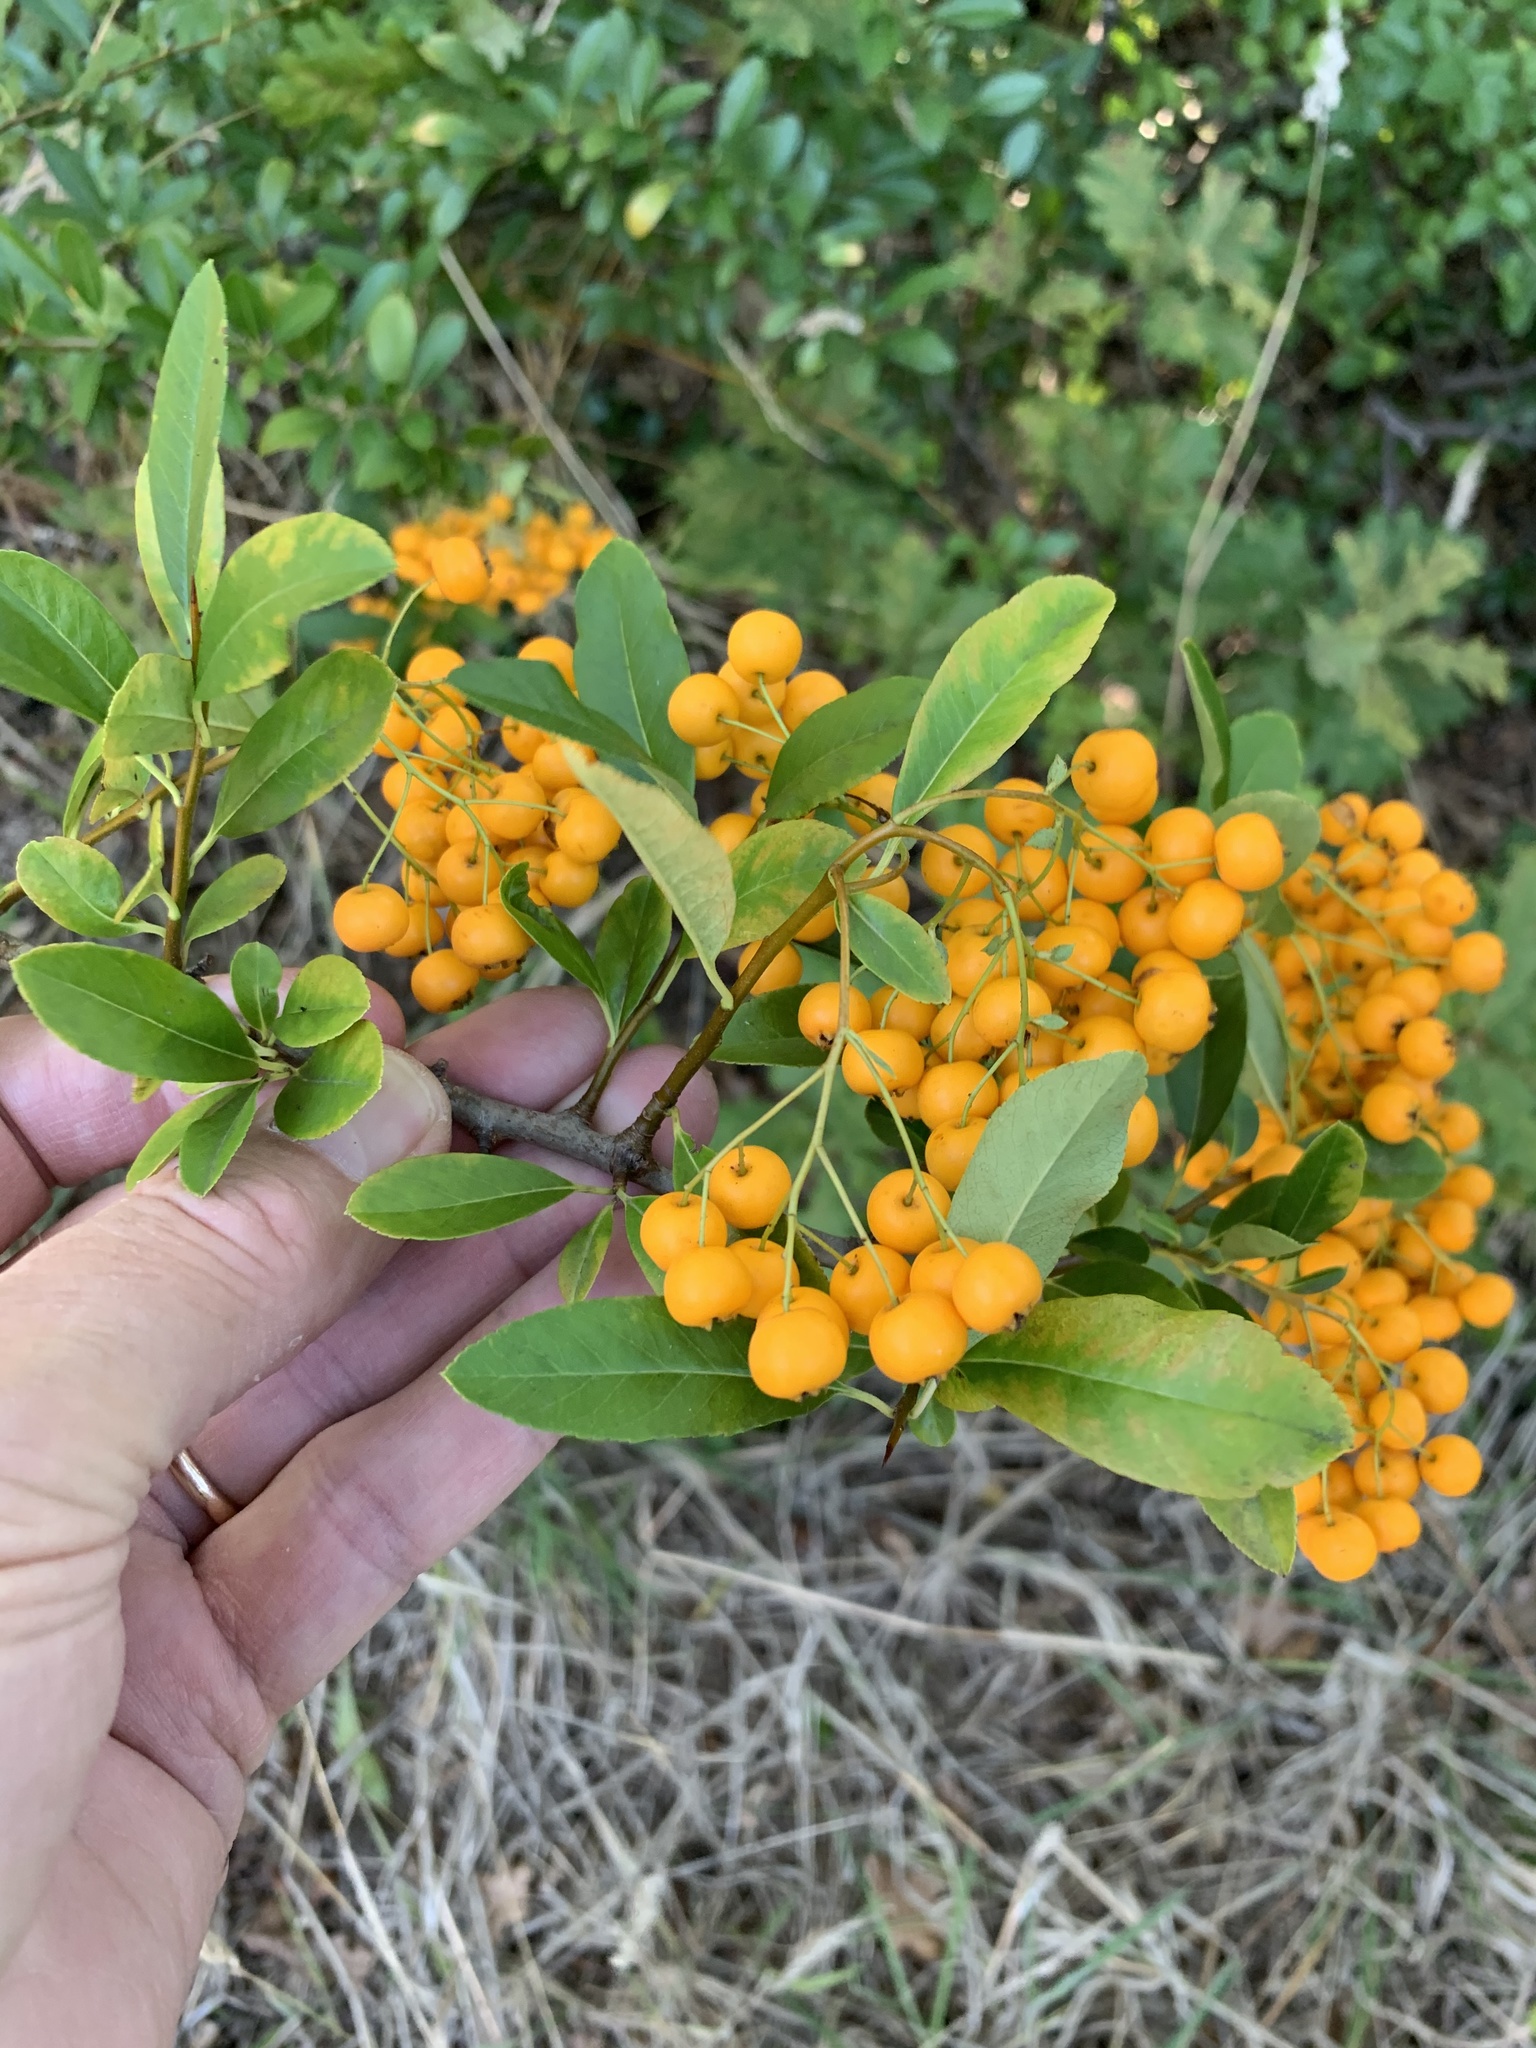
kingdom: Plantae
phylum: Tracheophyta
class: Magnoliopsida
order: Rosales
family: Rosaceae
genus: Pyracantha
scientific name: Pyracantha crenulata
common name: Nepalese firethorn
